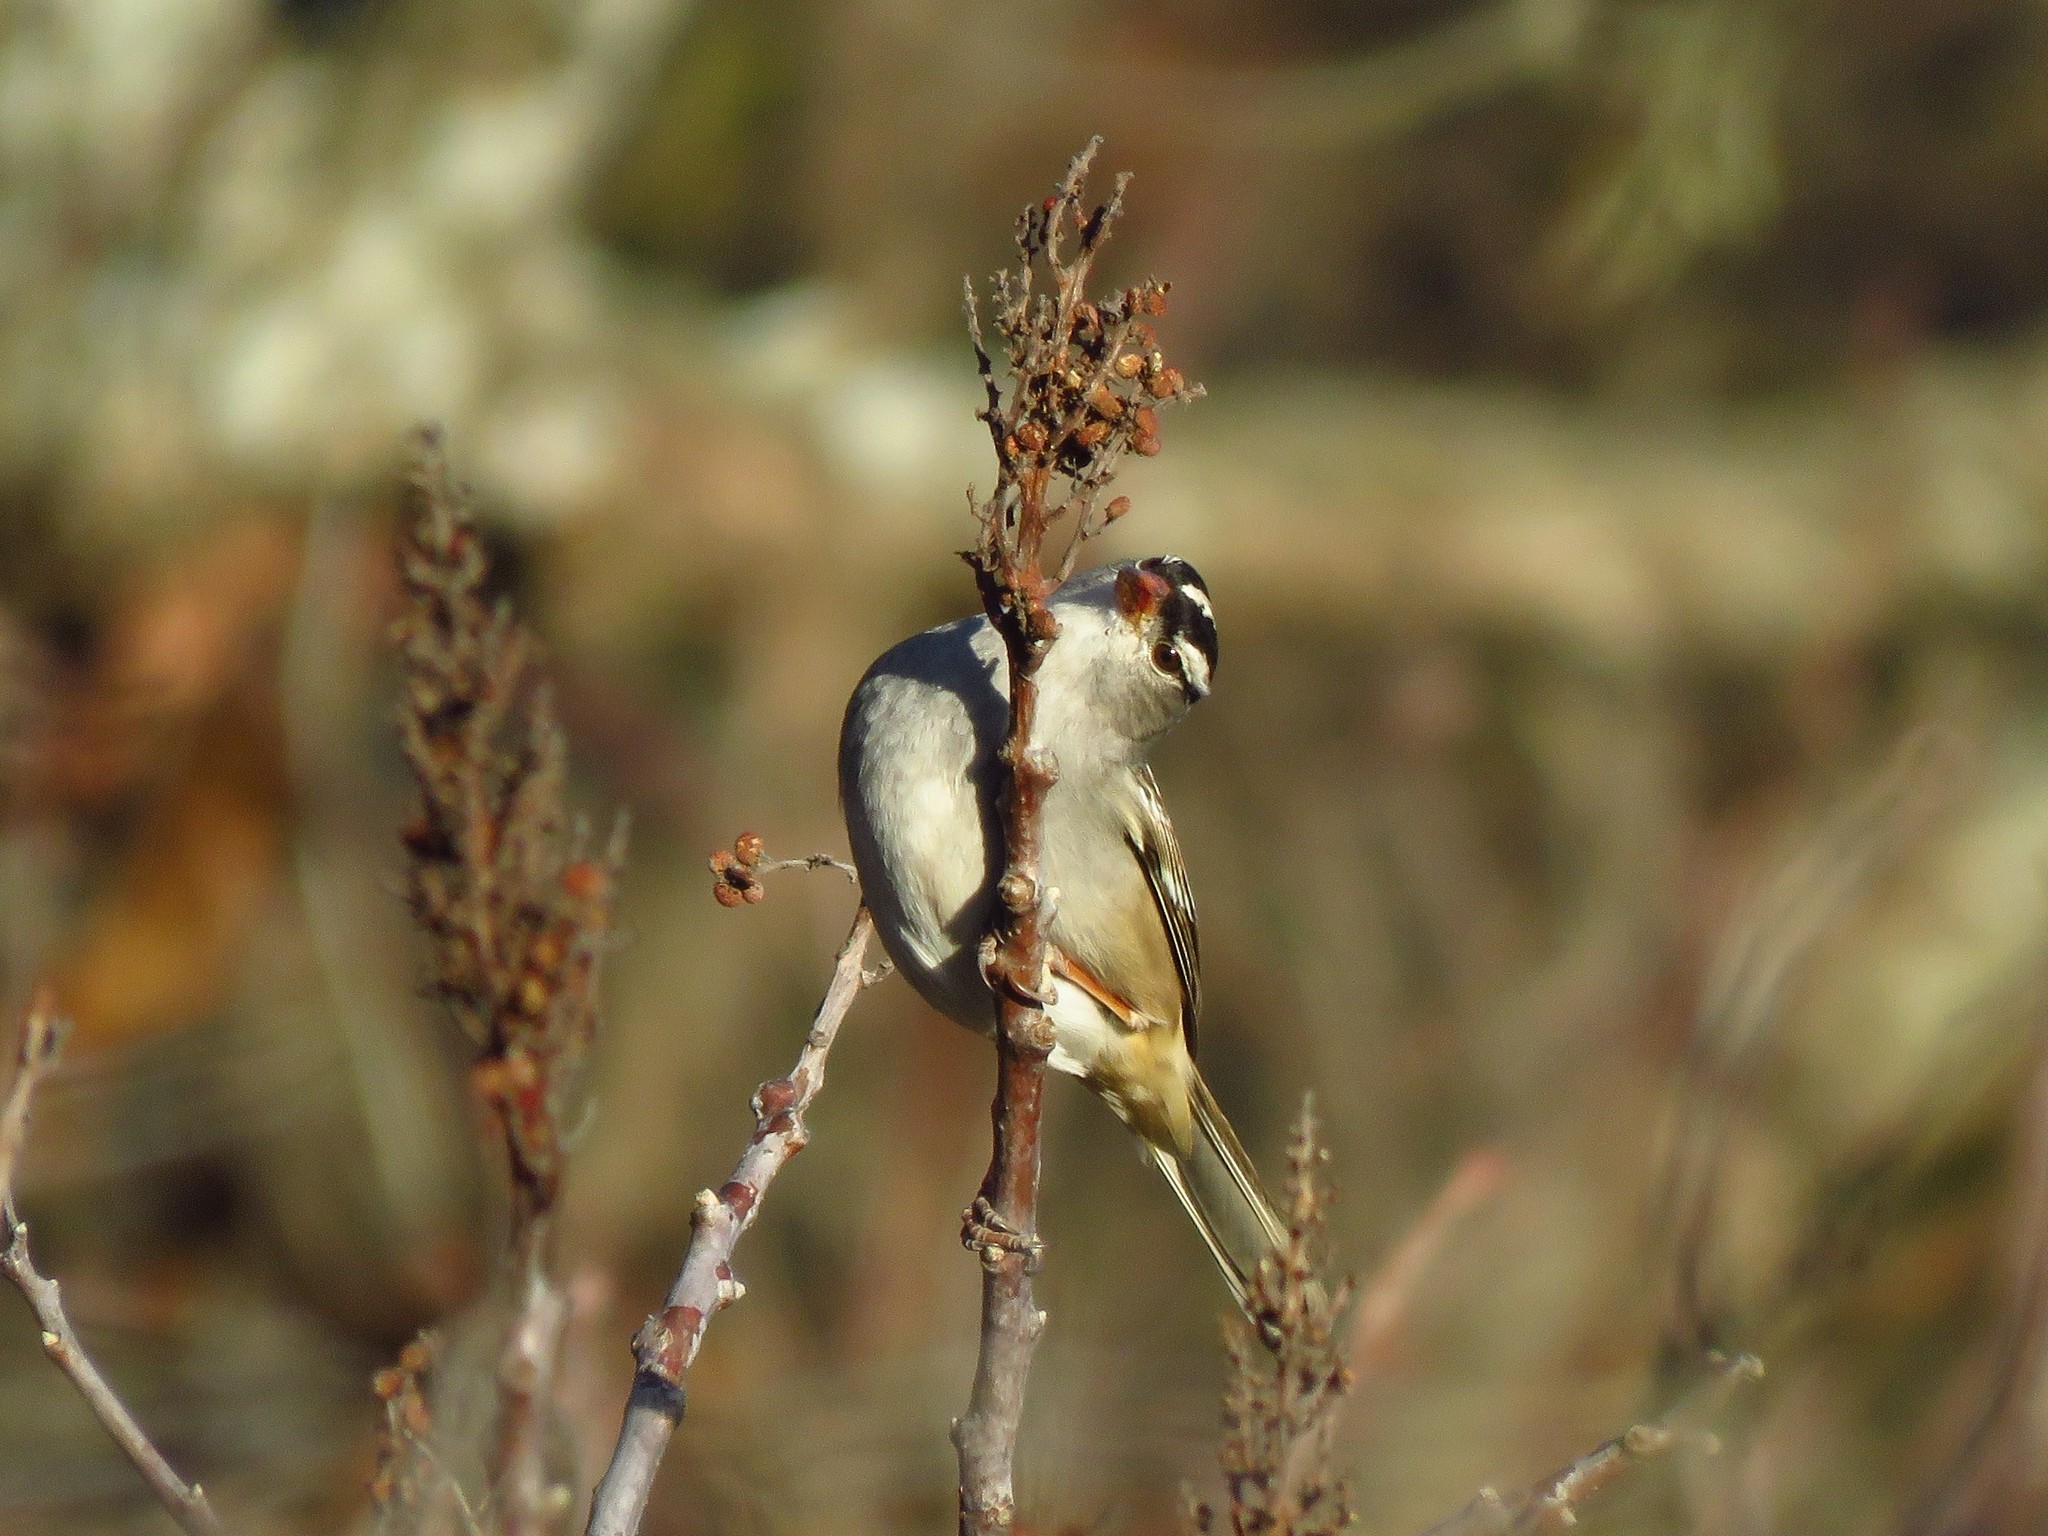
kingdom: Animalia
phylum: Chordata
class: Aves
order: Passeriformes
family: Passerellidae
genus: Zonotrichia
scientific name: Zonotrichia leucophrys
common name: White-crowned sparrow
